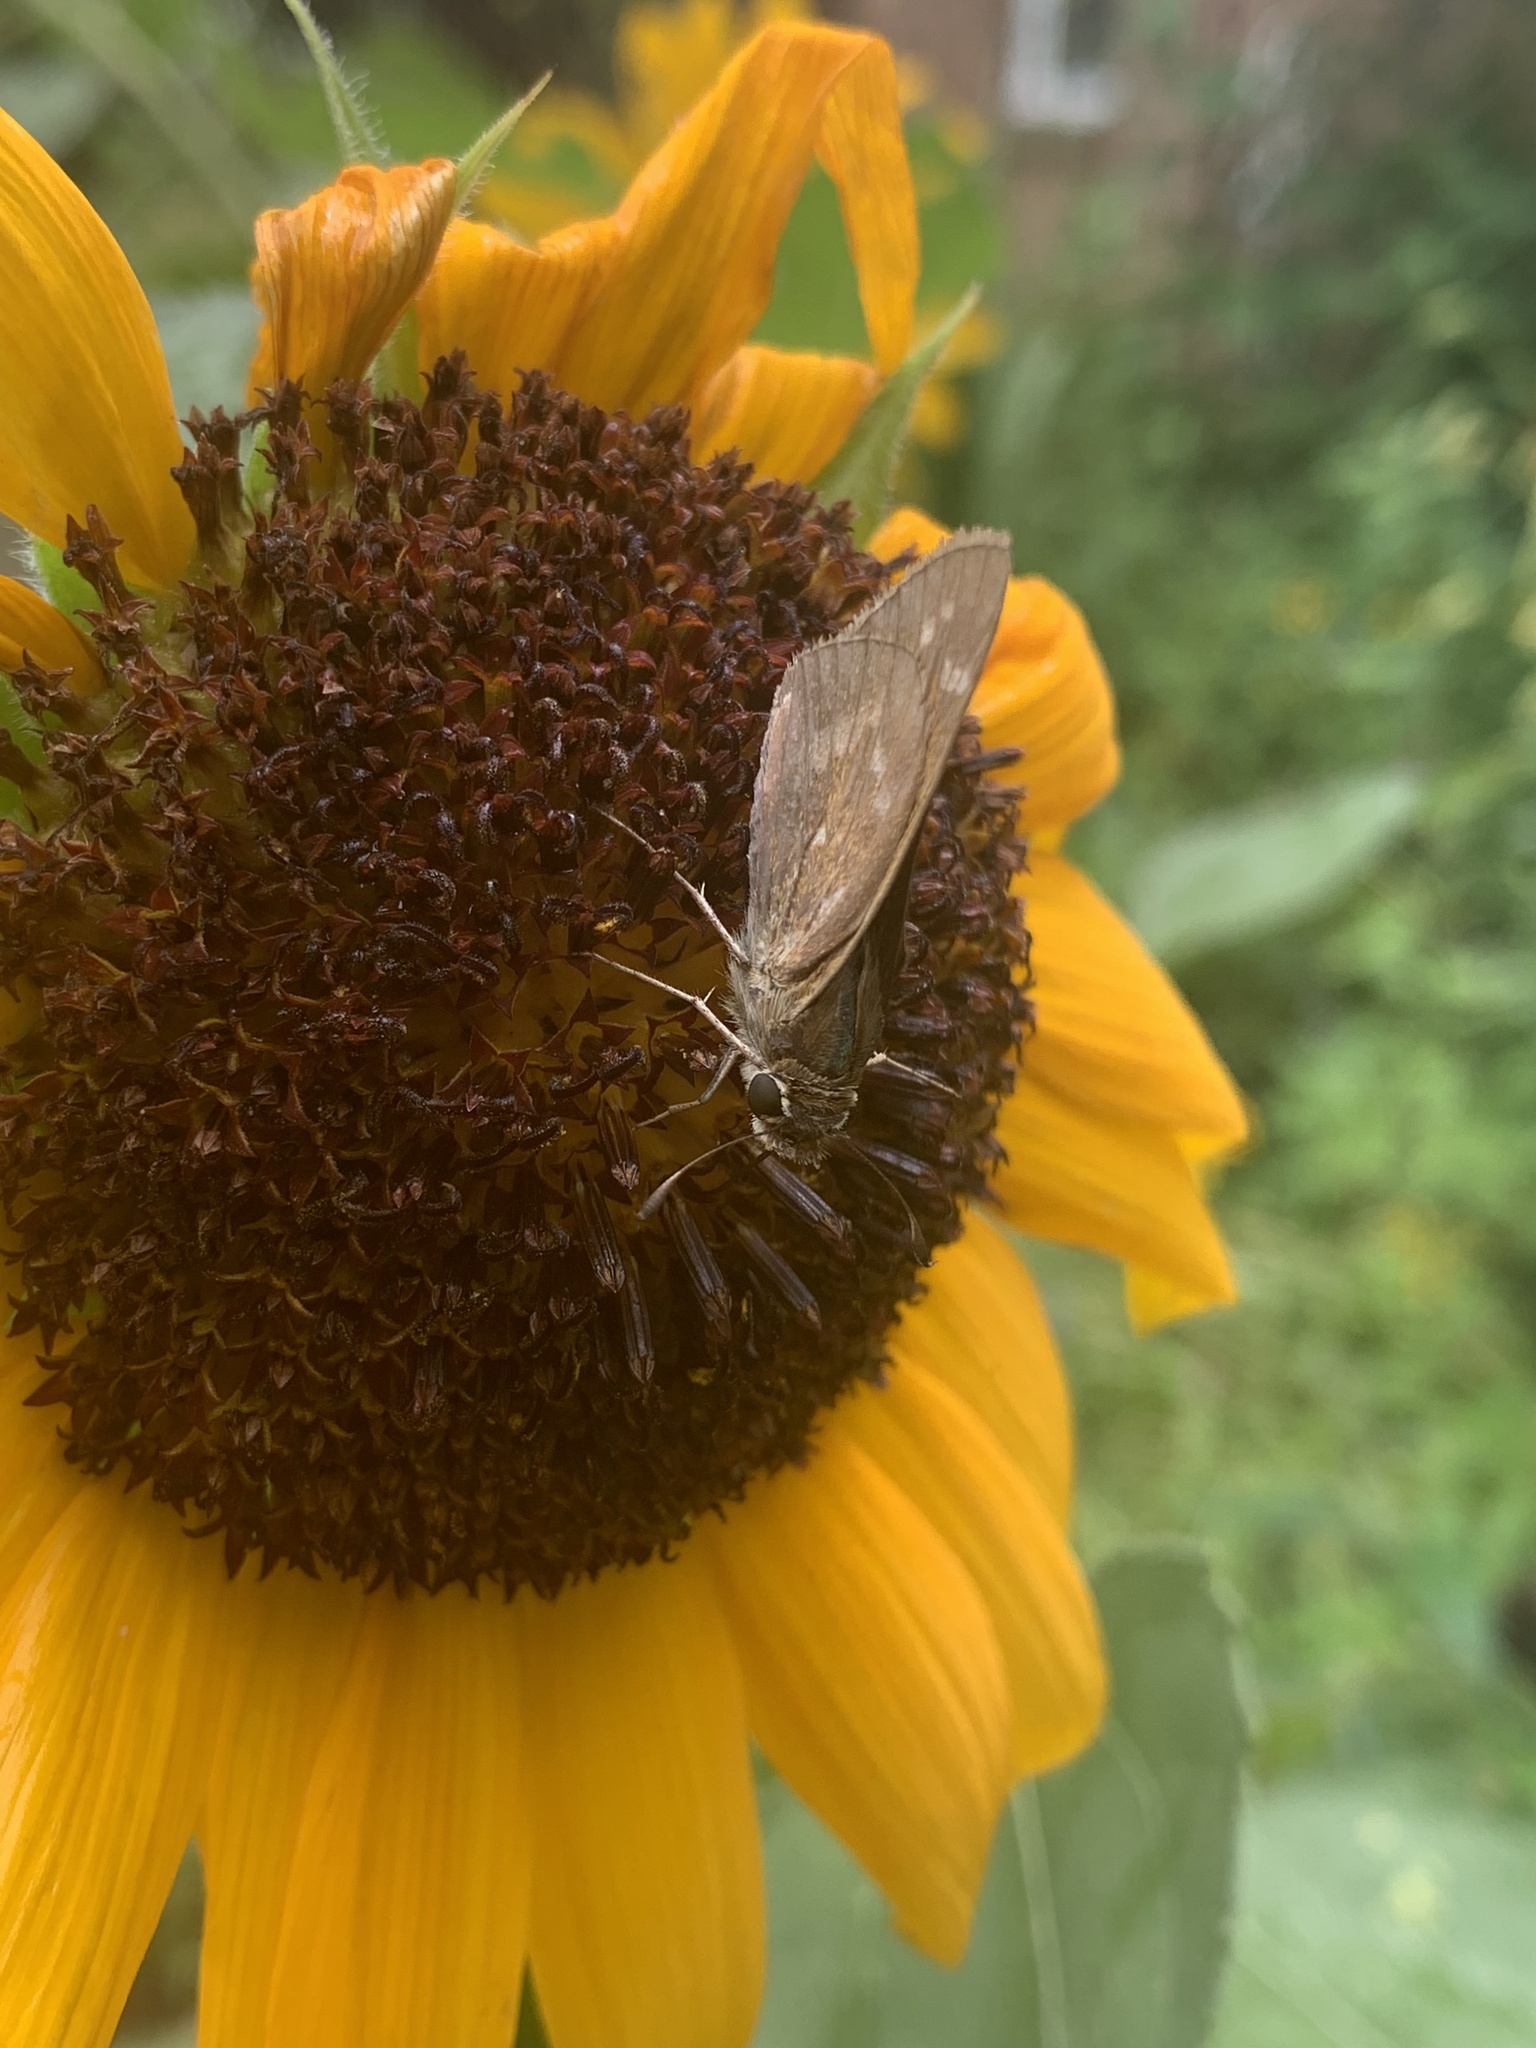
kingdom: Animalia
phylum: Arthropoda
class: Insecta
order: Lepidoptera
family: Hesperiidae
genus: Atalopedes
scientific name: Atalopedes
